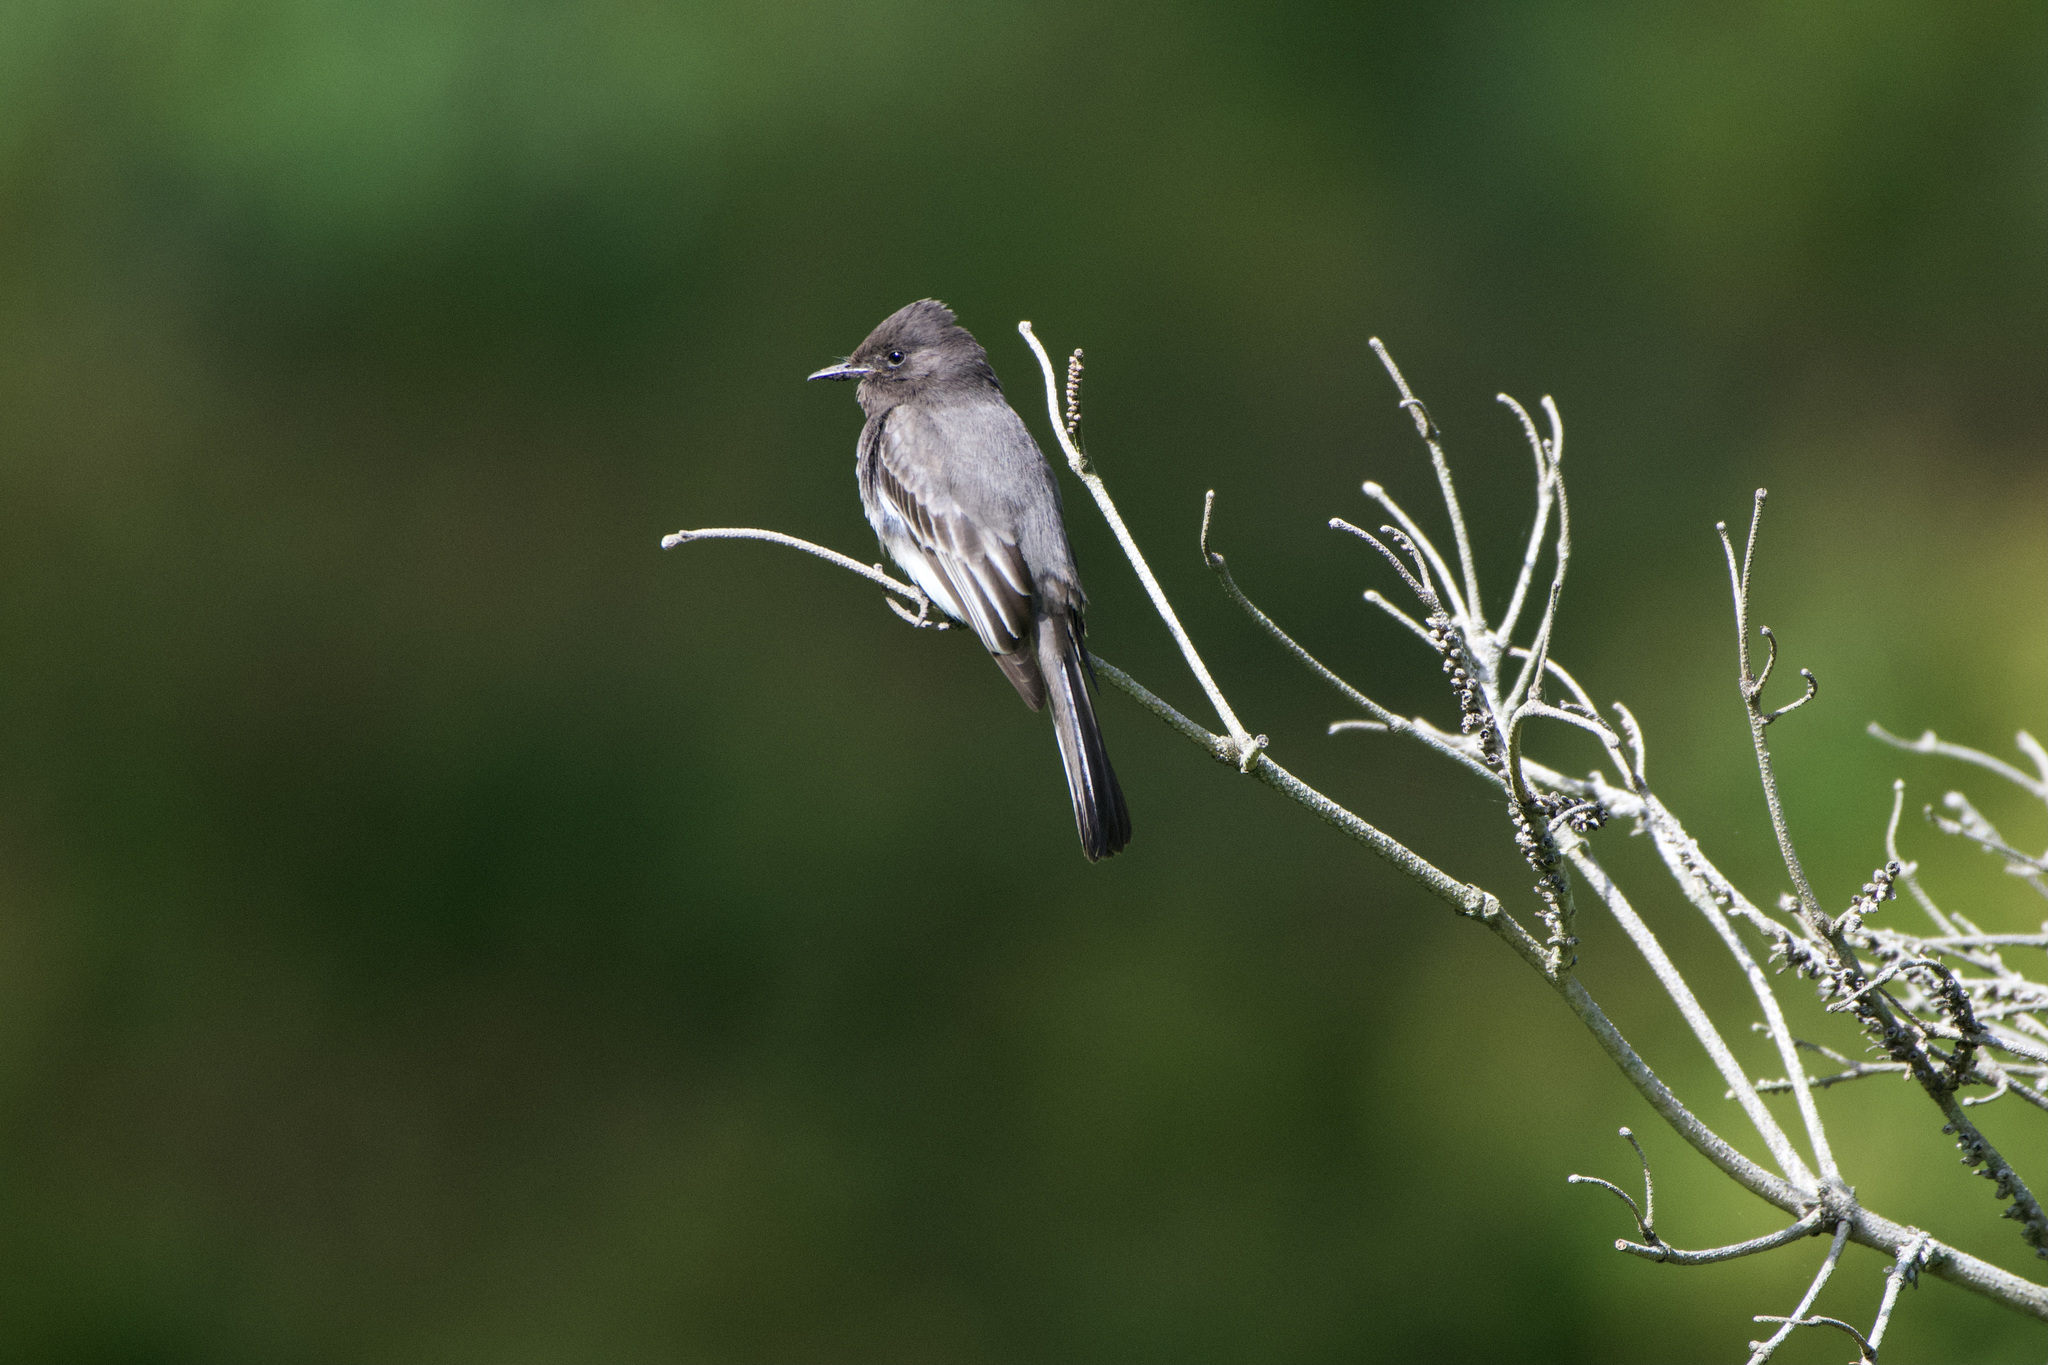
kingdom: Animalia
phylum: Chordata
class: Aves
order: Passeriformes
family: Tyrannidae
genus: Sayornis
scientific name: Sayornis nigricans
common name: Black phoebe
